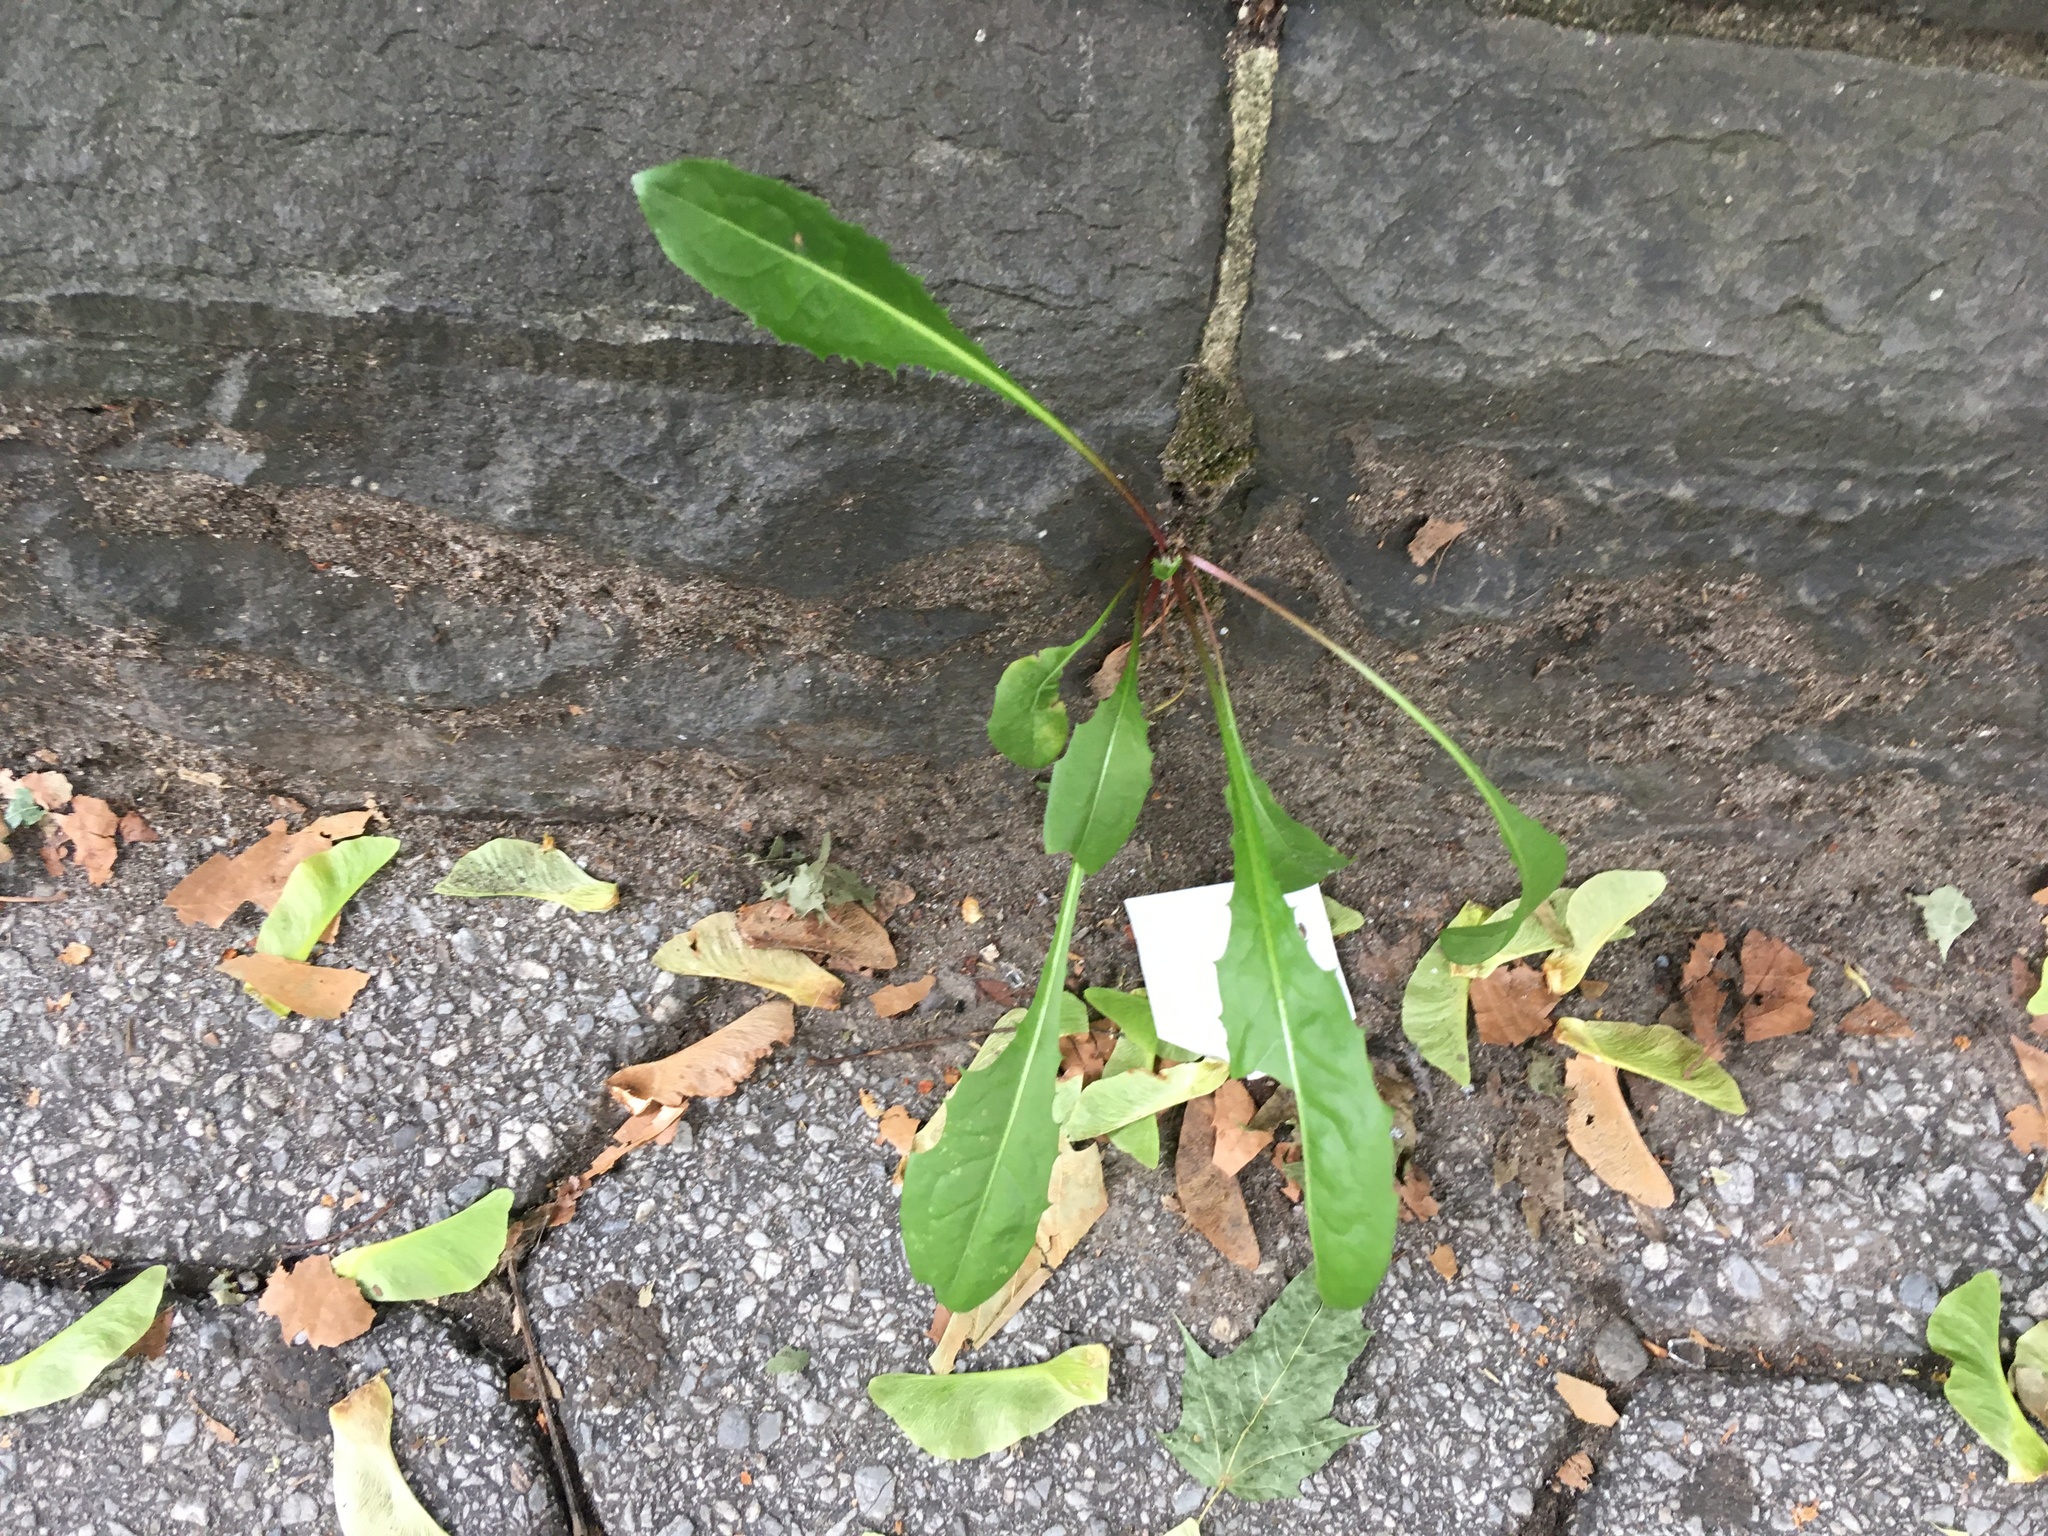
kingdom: Plantae
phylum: Tracheophyta
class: Magnoliopsida
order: Asterales
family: Asteraceae
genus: Taraxacum
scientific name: Taraxacum officinale
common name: Common dandelion
